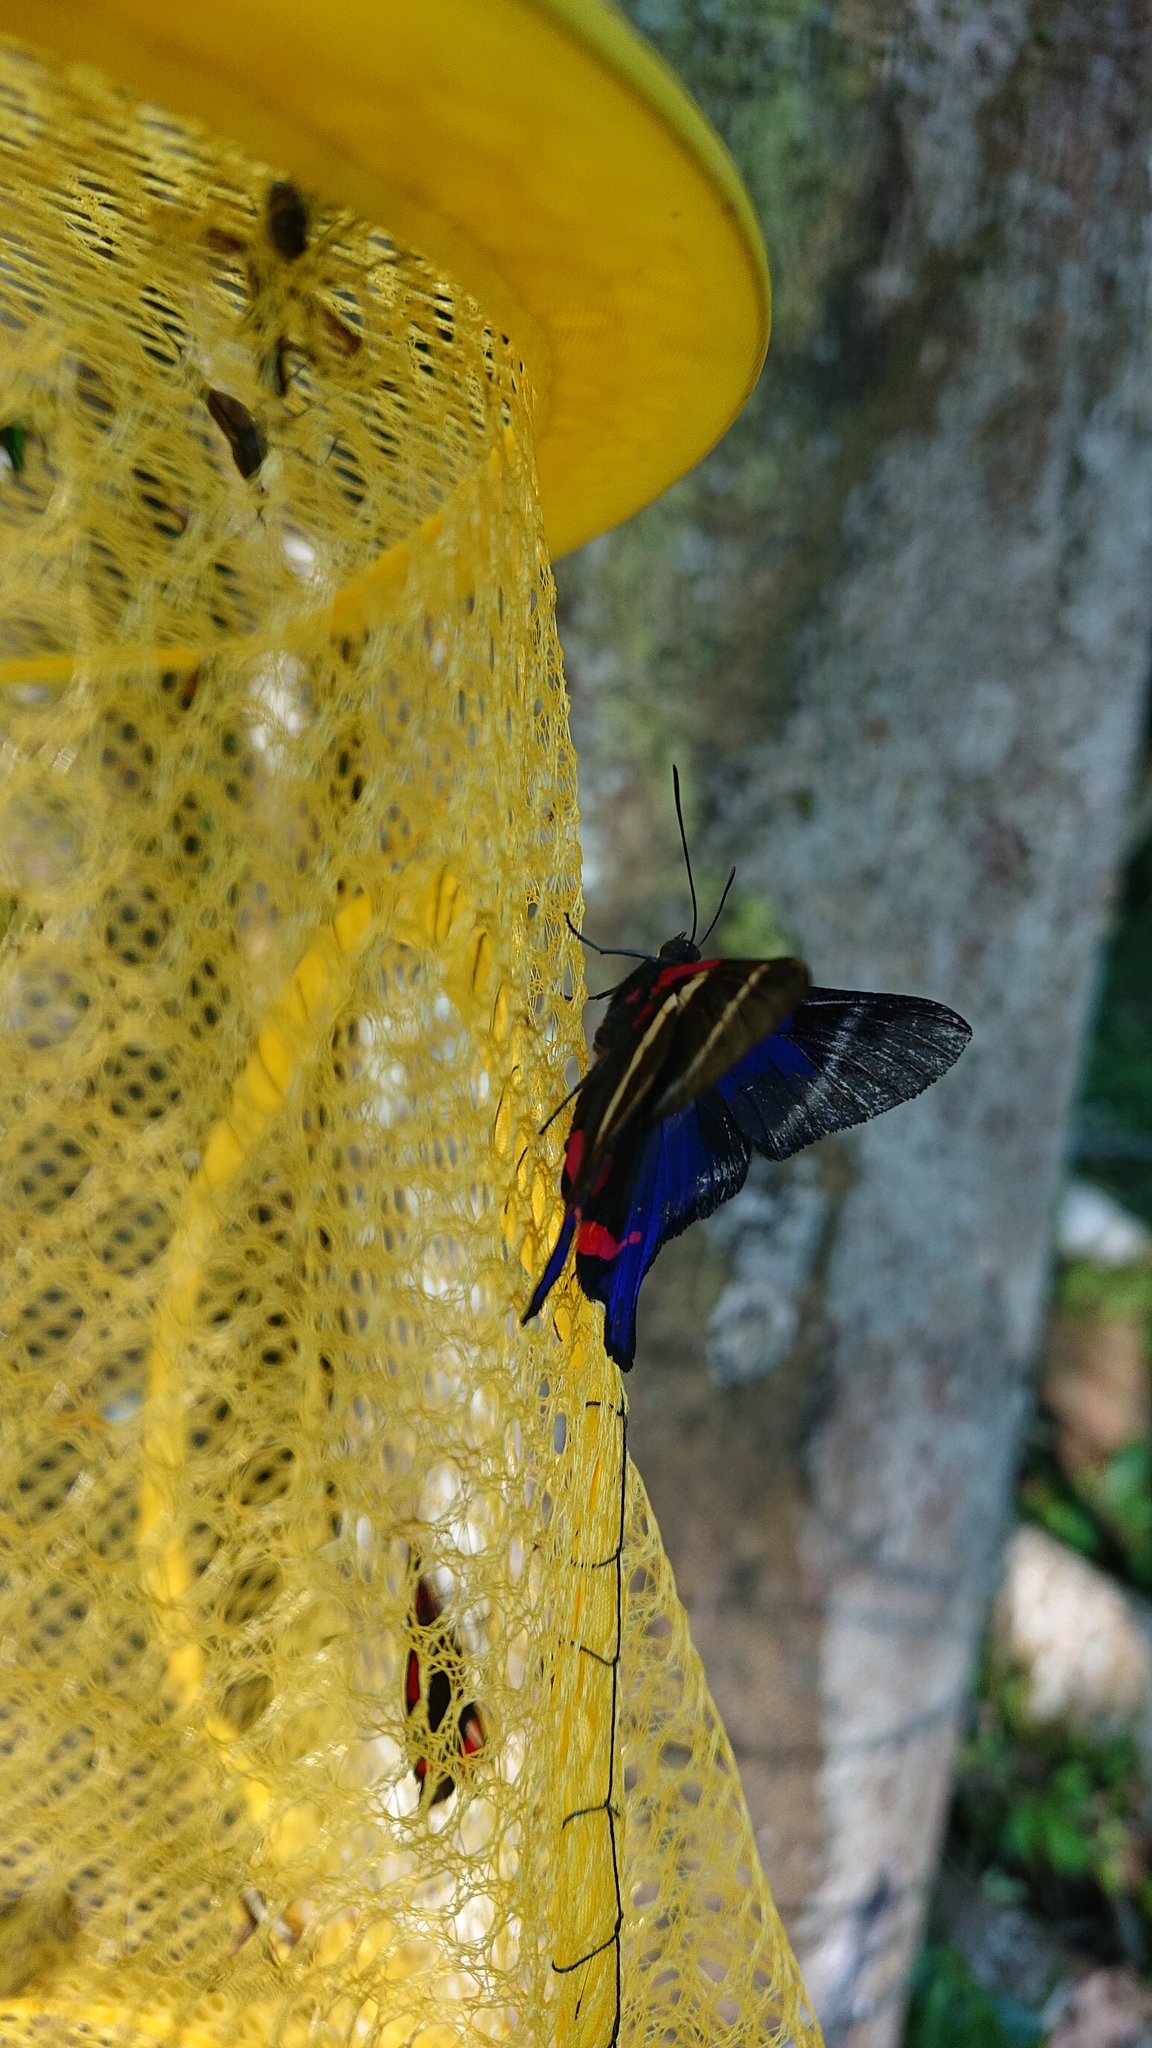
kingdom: Animalia
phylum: Arthropoda
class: Insecta
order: Lepidoptera
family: Riodinidae
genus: Rhetus
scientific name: Rhetus periander
